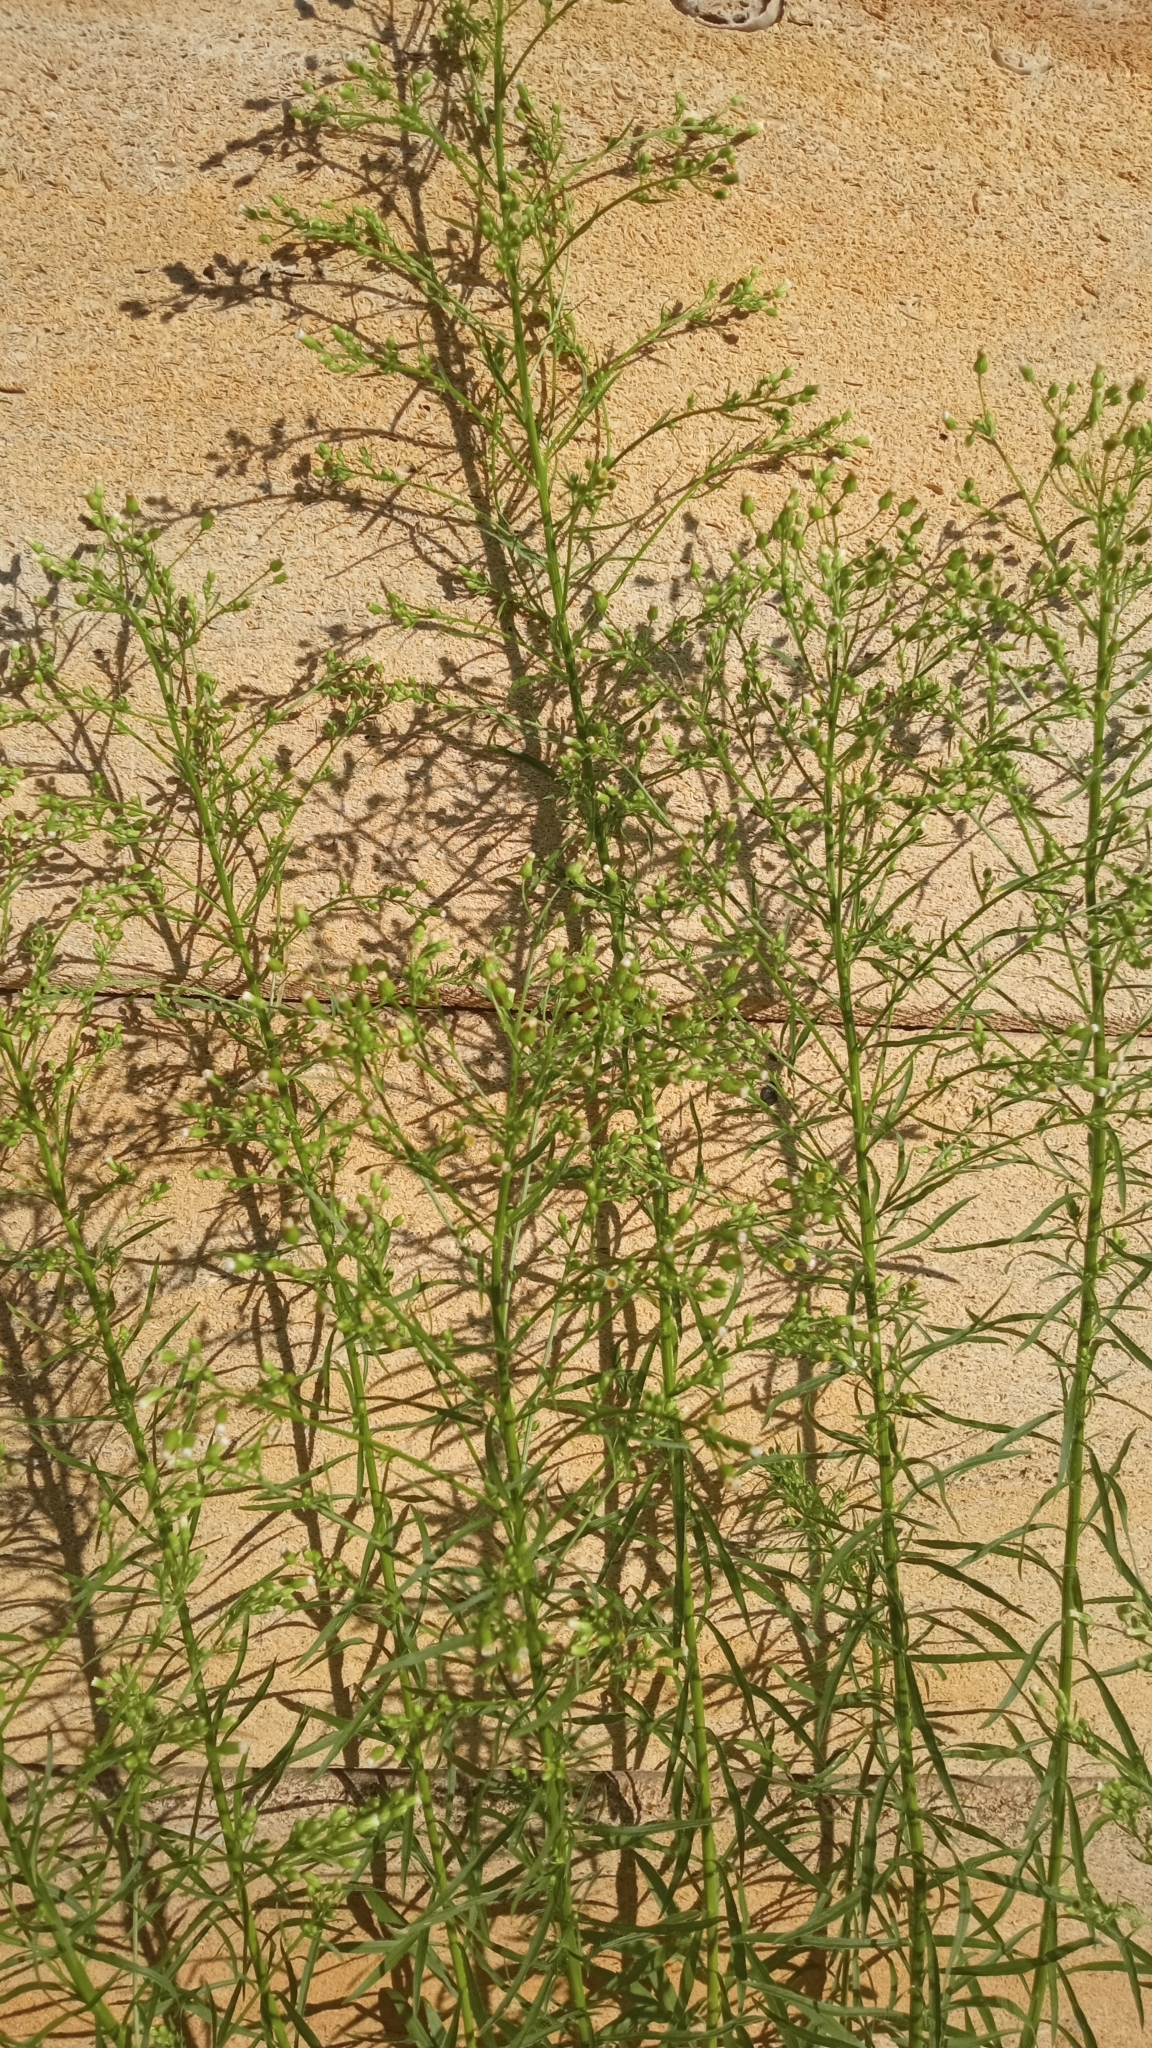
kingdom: Plantae
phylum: Tracheophyta
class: Magnoliopsida
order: Asterales
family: Asteraceae
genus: Erigeron
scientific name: Erigeron canadensis
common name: Canadian fleabane
